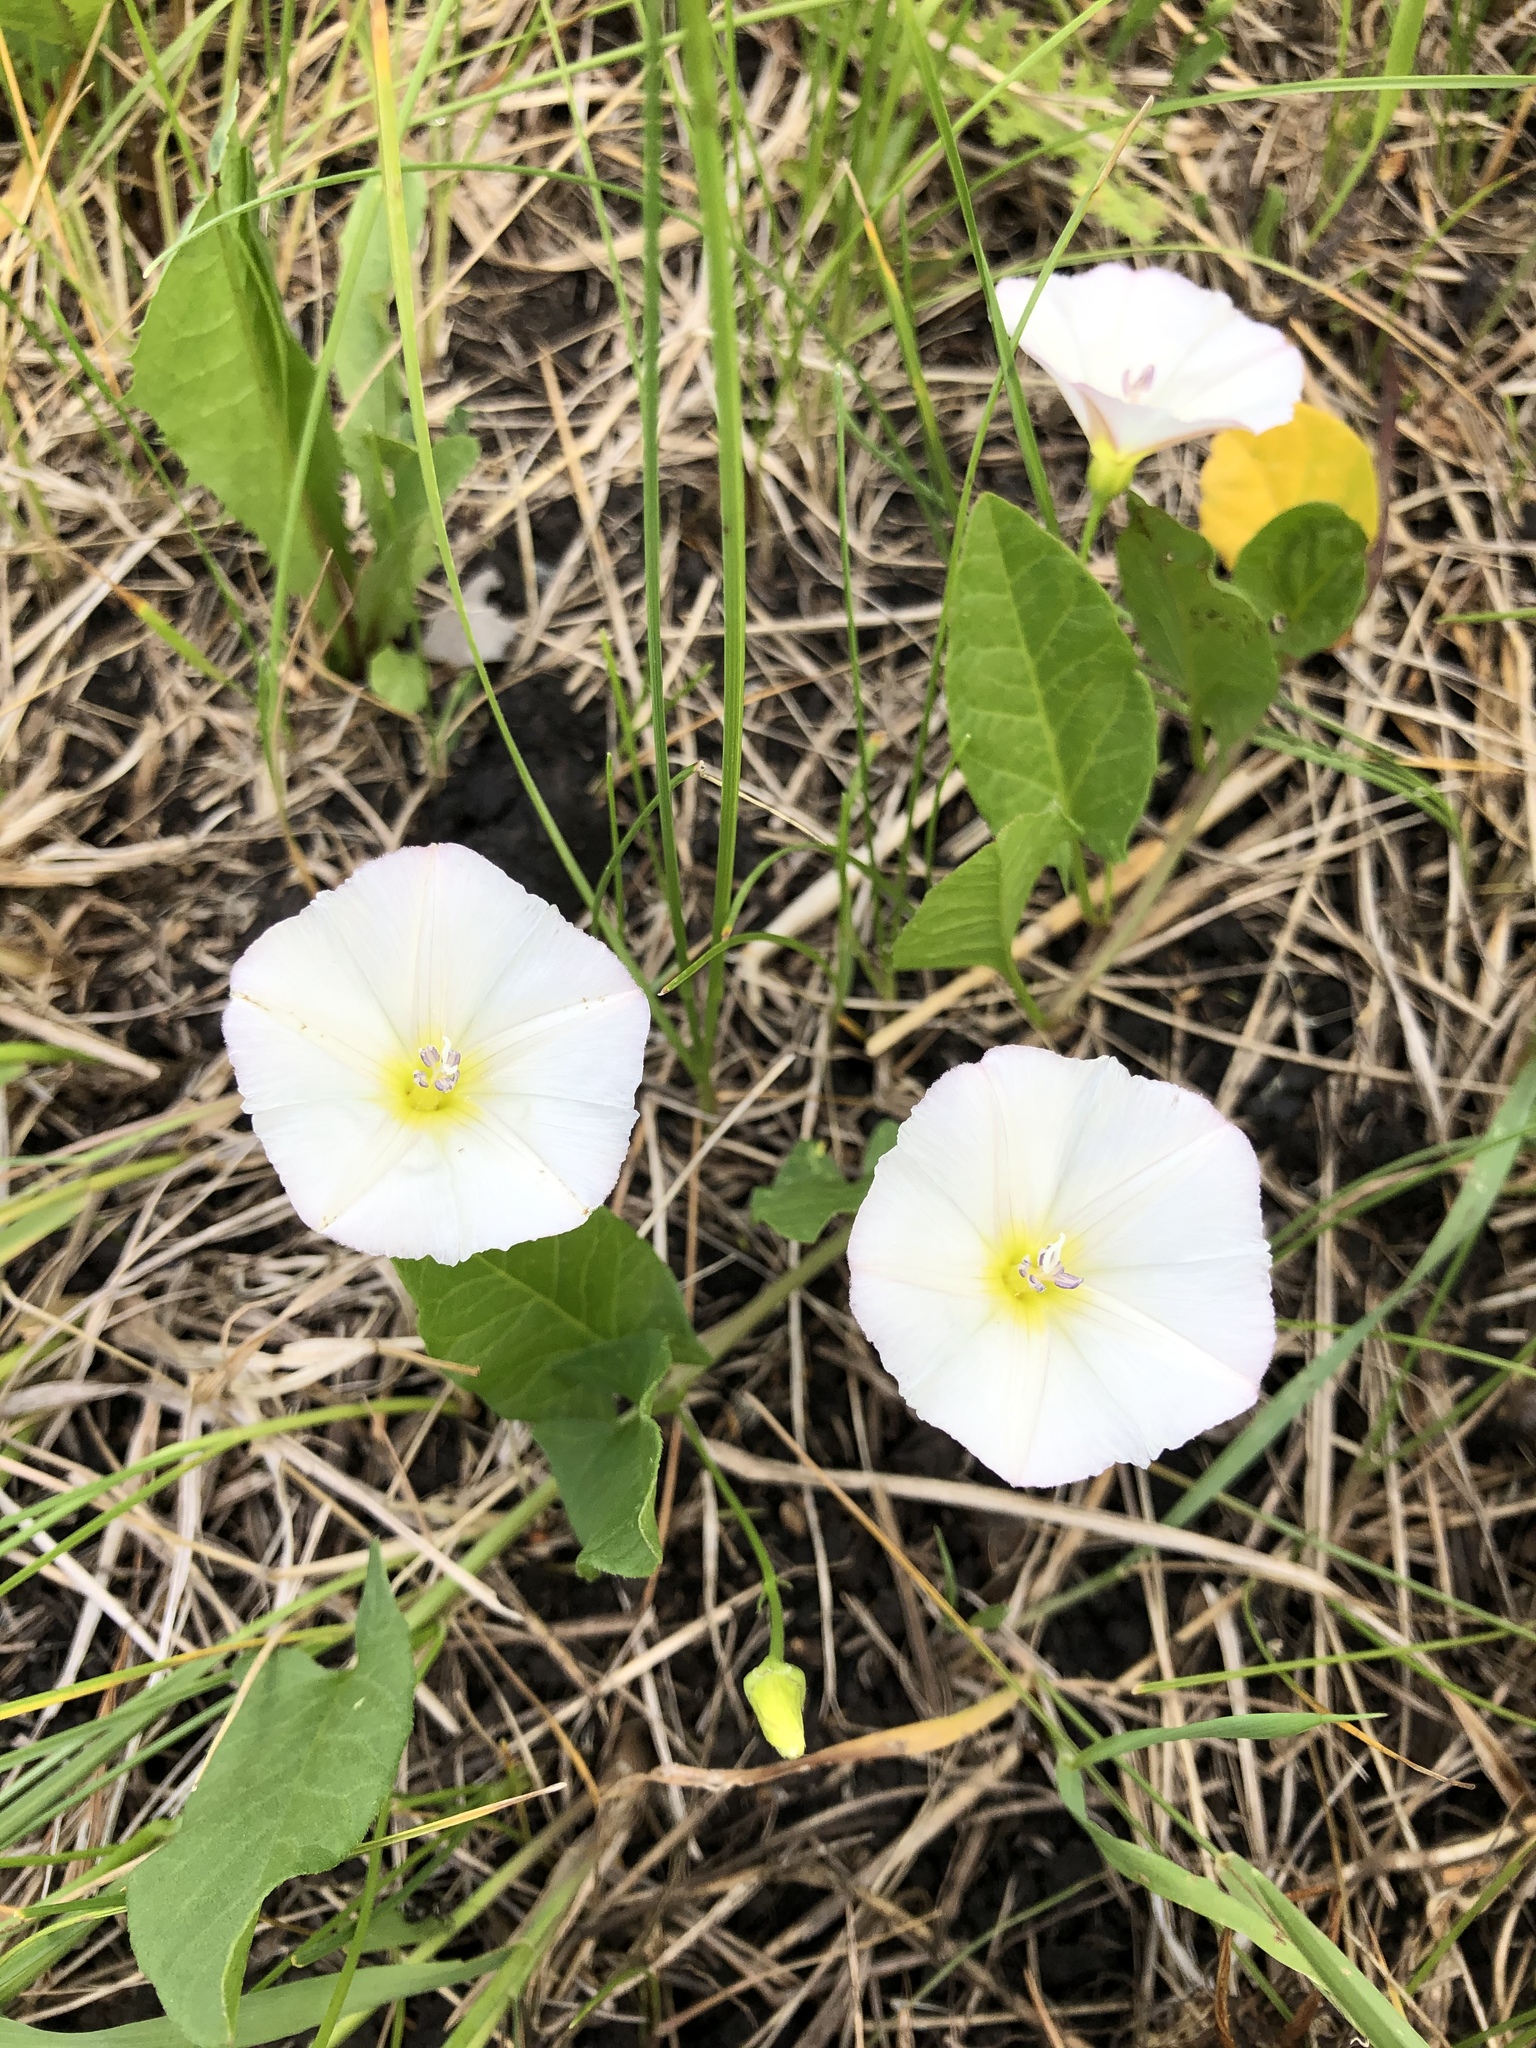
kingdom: Plantae
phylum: Tracheophyta
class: Magnoliopsida
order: Solanales
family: Convolvulaceae
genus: Convolvulus
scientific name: Convolvulus arvensis
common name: Field bindweed
